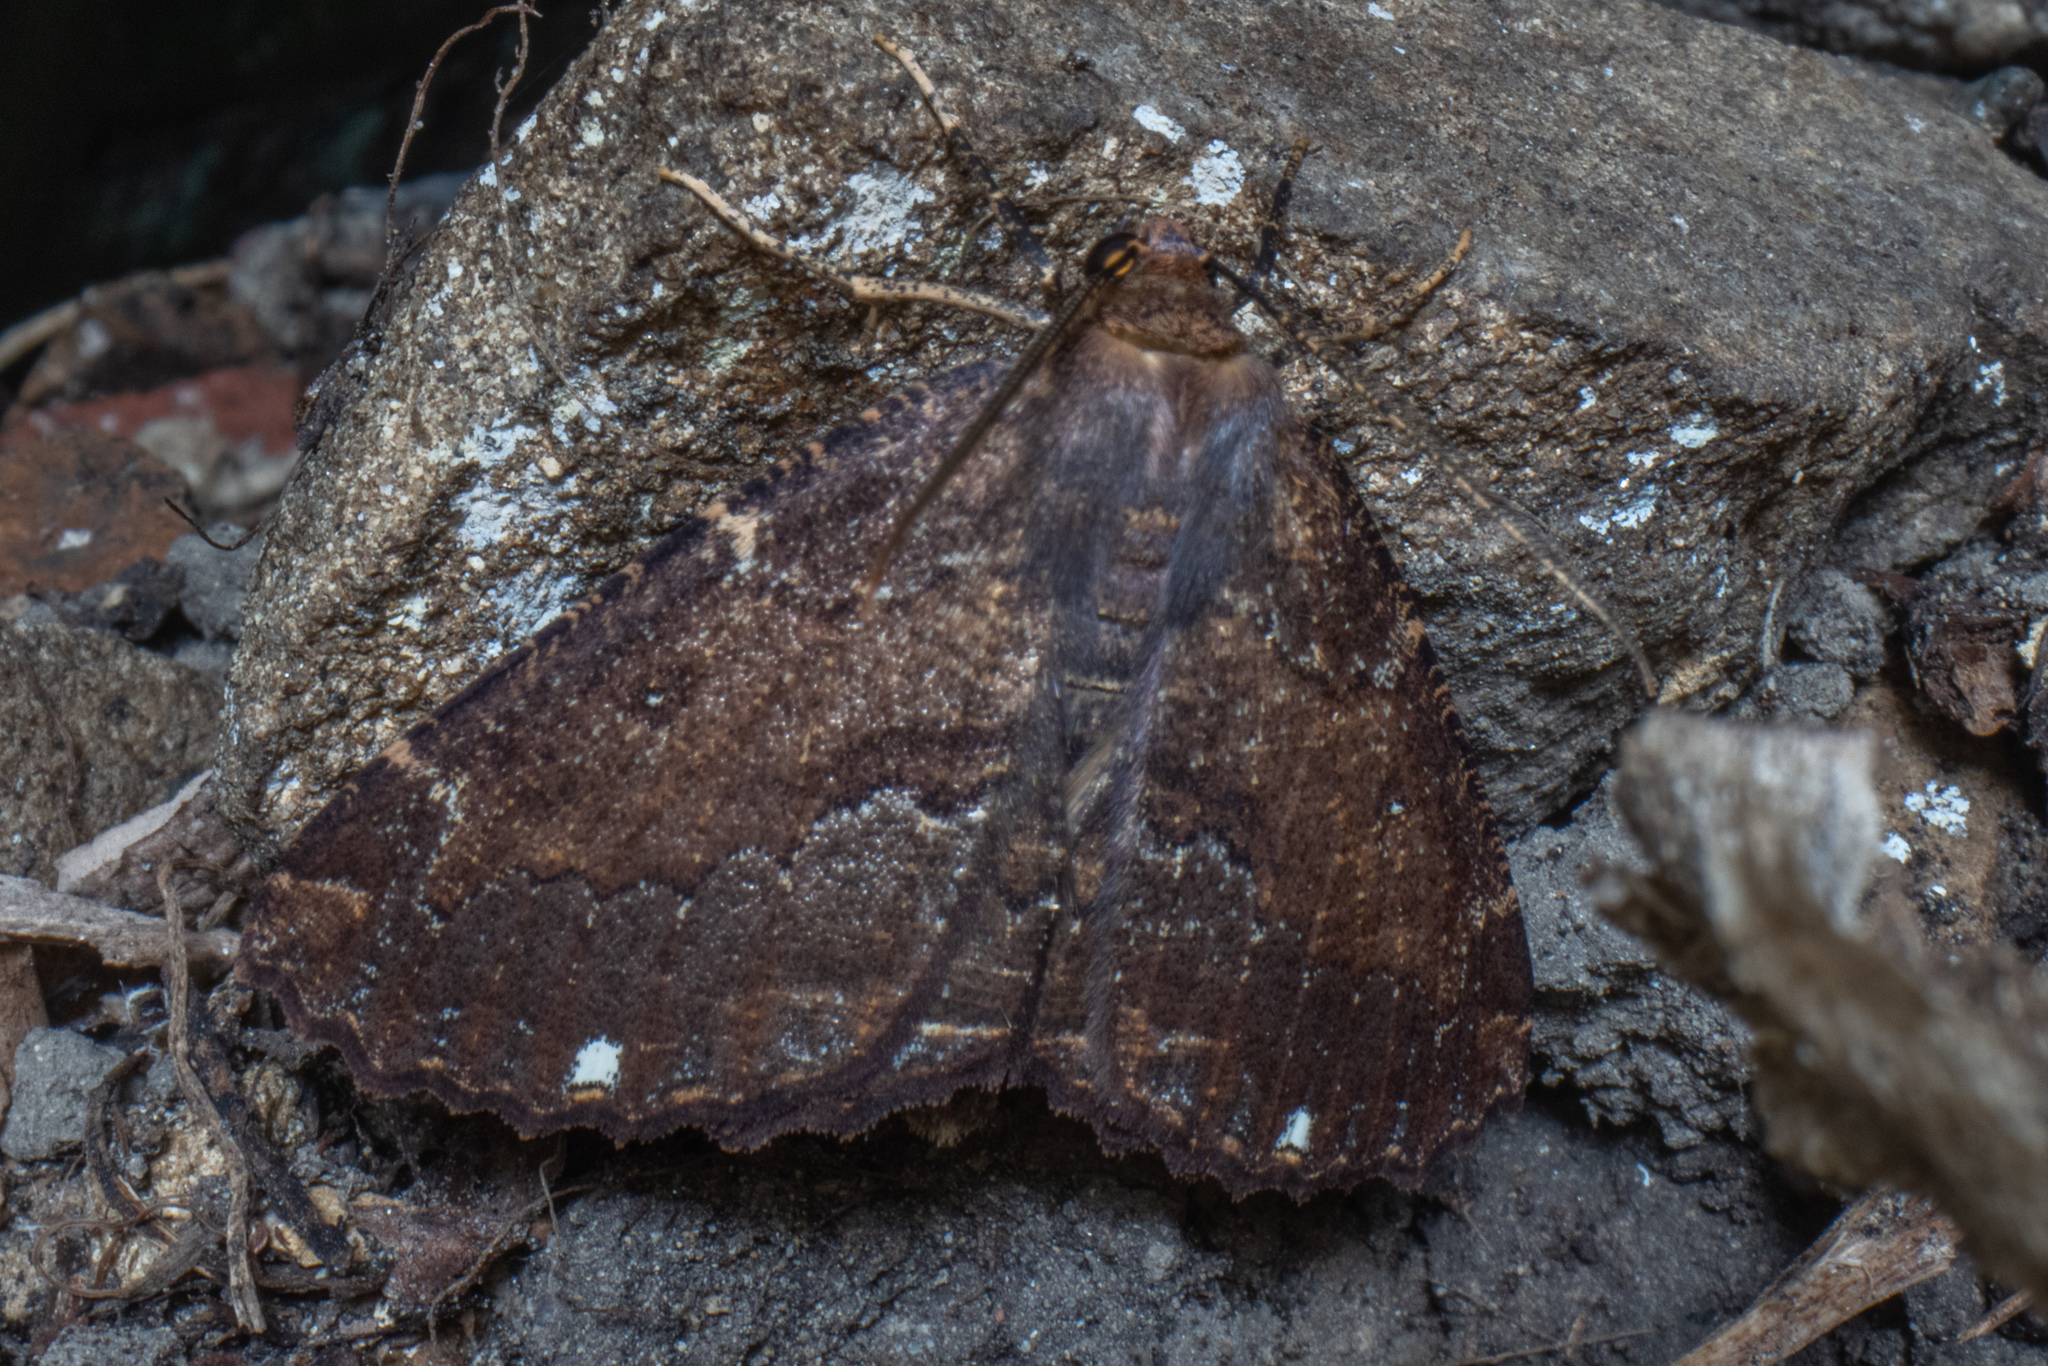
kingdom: Animalia
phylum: Arthropoda
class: Insecta
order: Lepidoptera
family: Geometridae
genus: Gellonia
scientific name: Gellonia dejectaria
